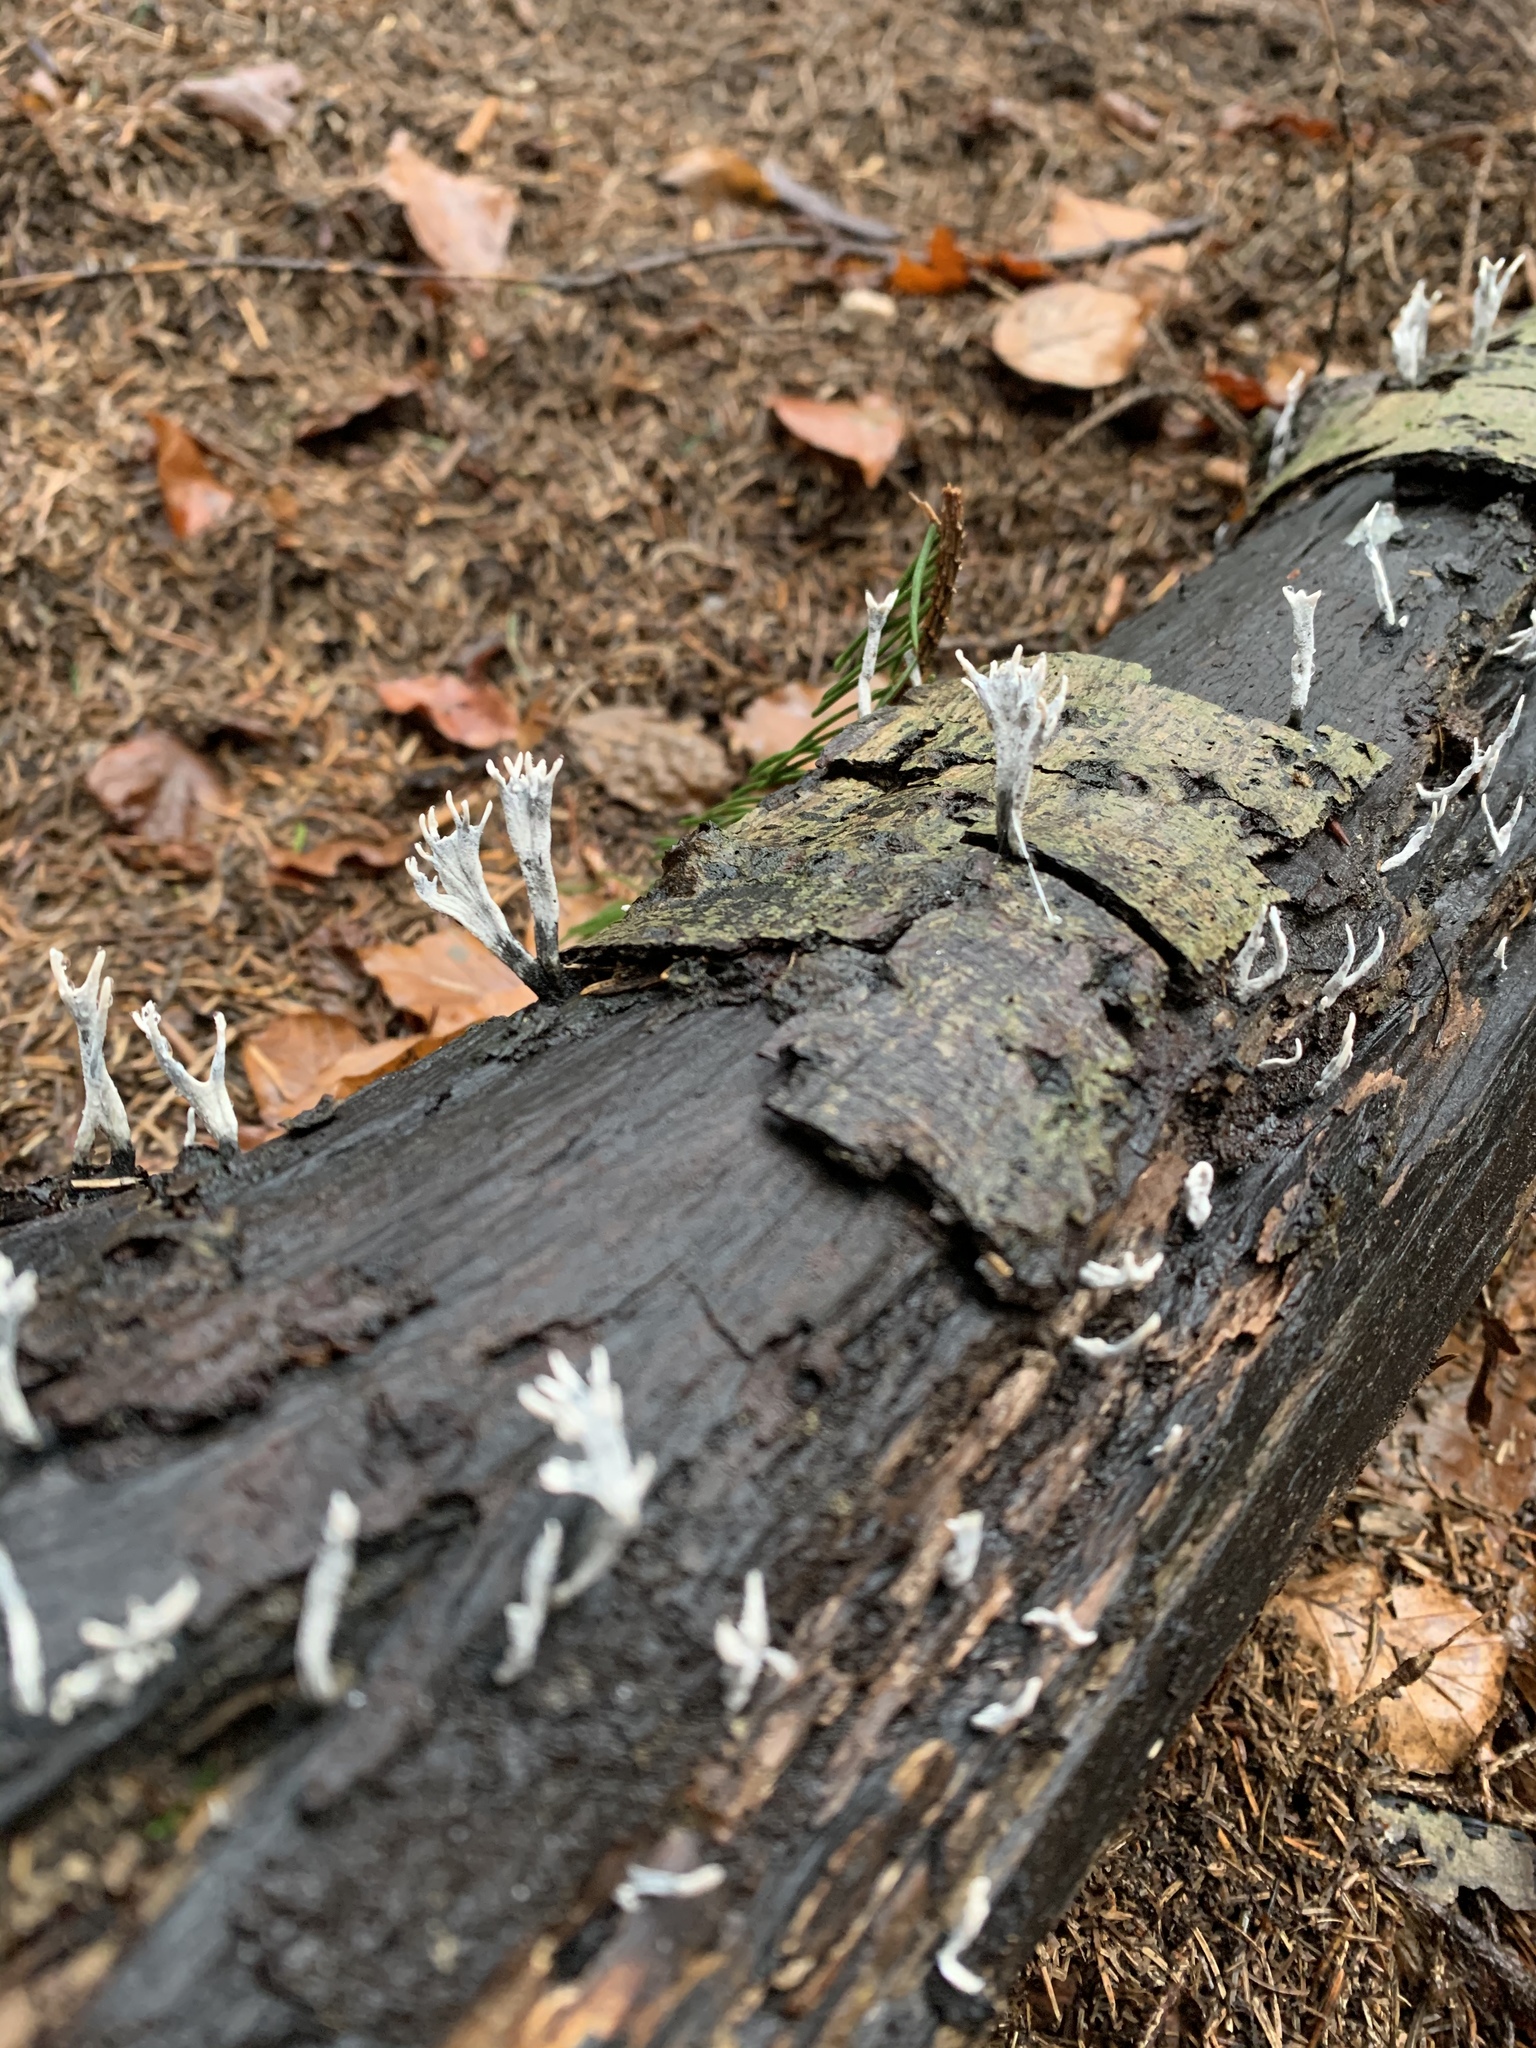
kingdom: Fungi
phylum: Ascomycota
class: Sordariomycetes
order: Xylariales
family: Xylariaceae
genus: Xylaria
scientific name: Xylaria hypoxylon
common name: Candle-snuff fungus
